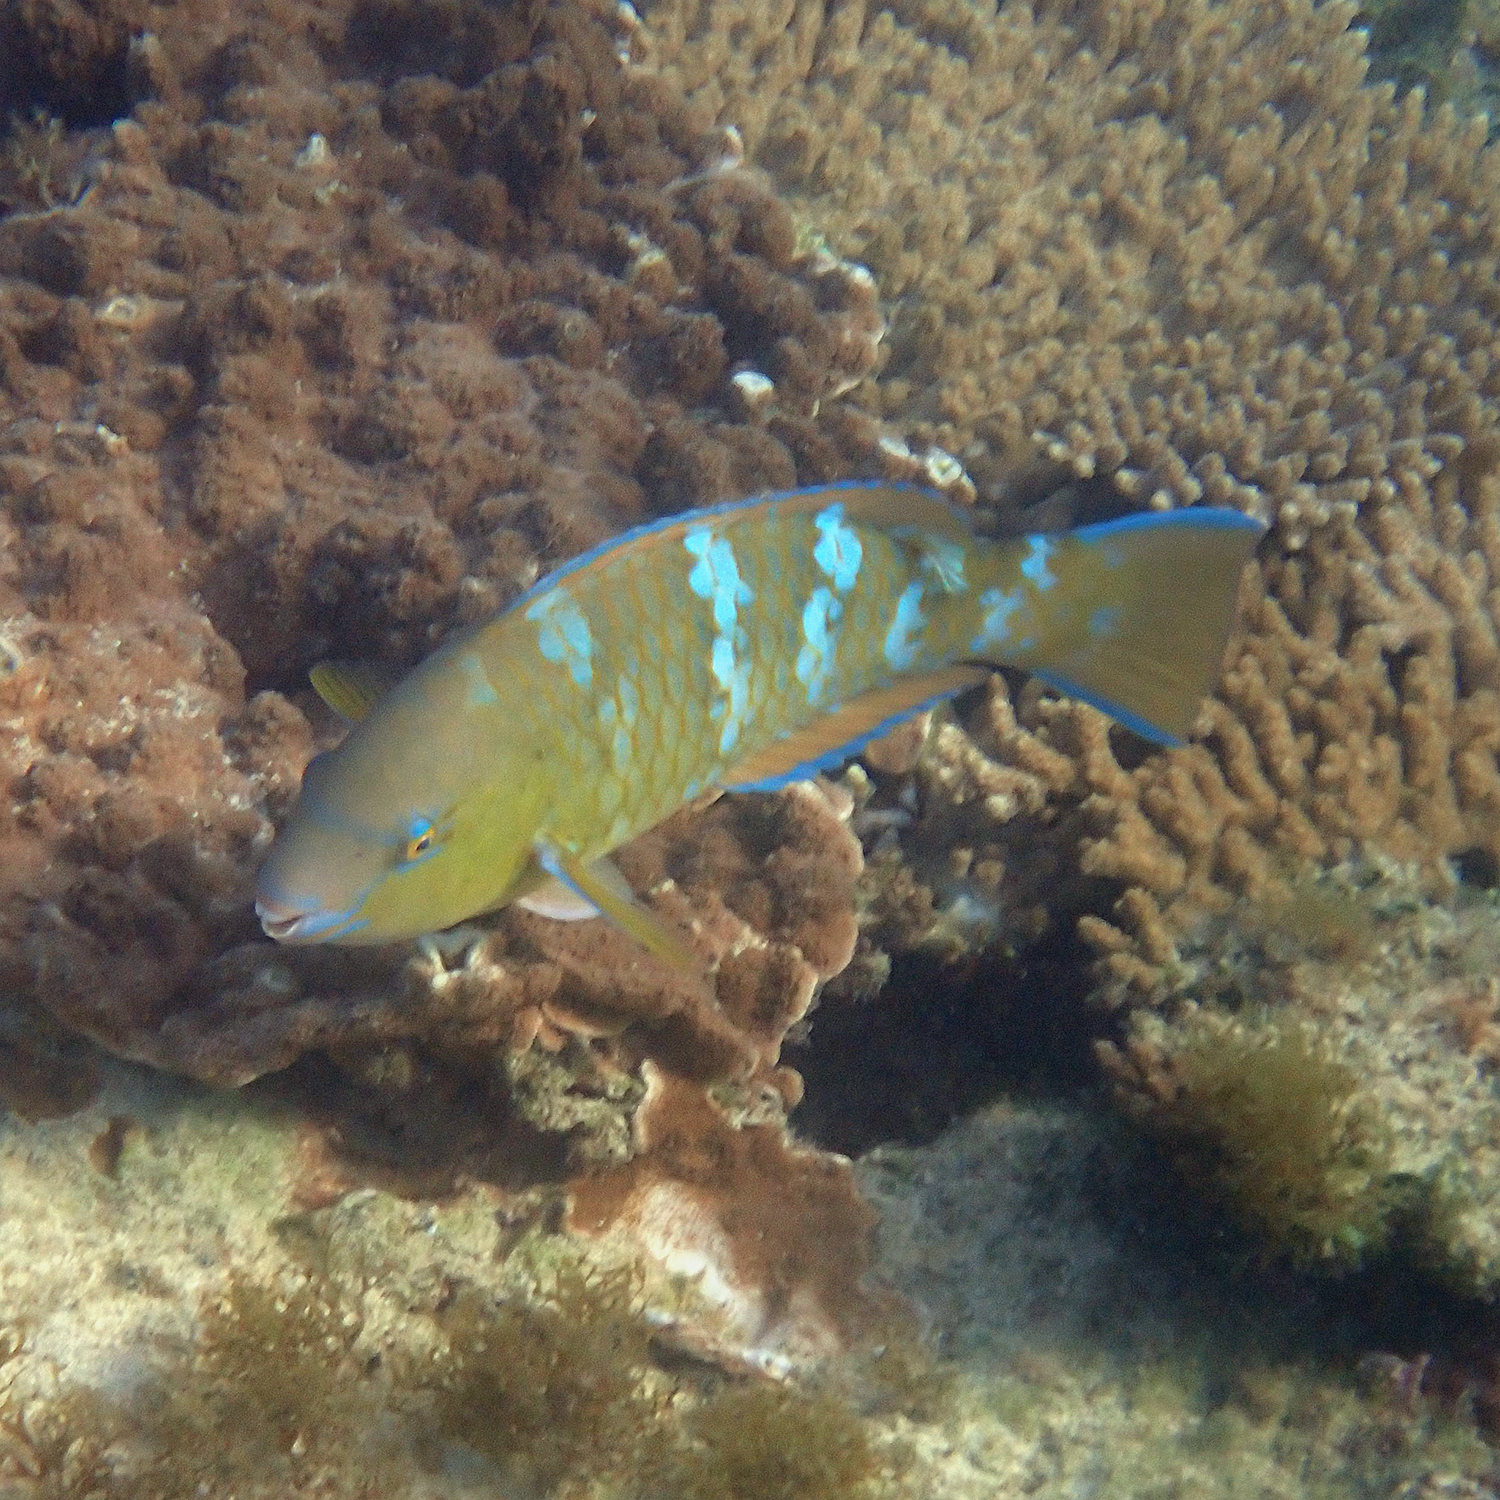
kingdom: Animalia
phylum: Chordata
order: Perciformes
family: Scaridae
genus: Scarus
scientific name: Scarus ghobban
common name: Blue-barred parrotfish
